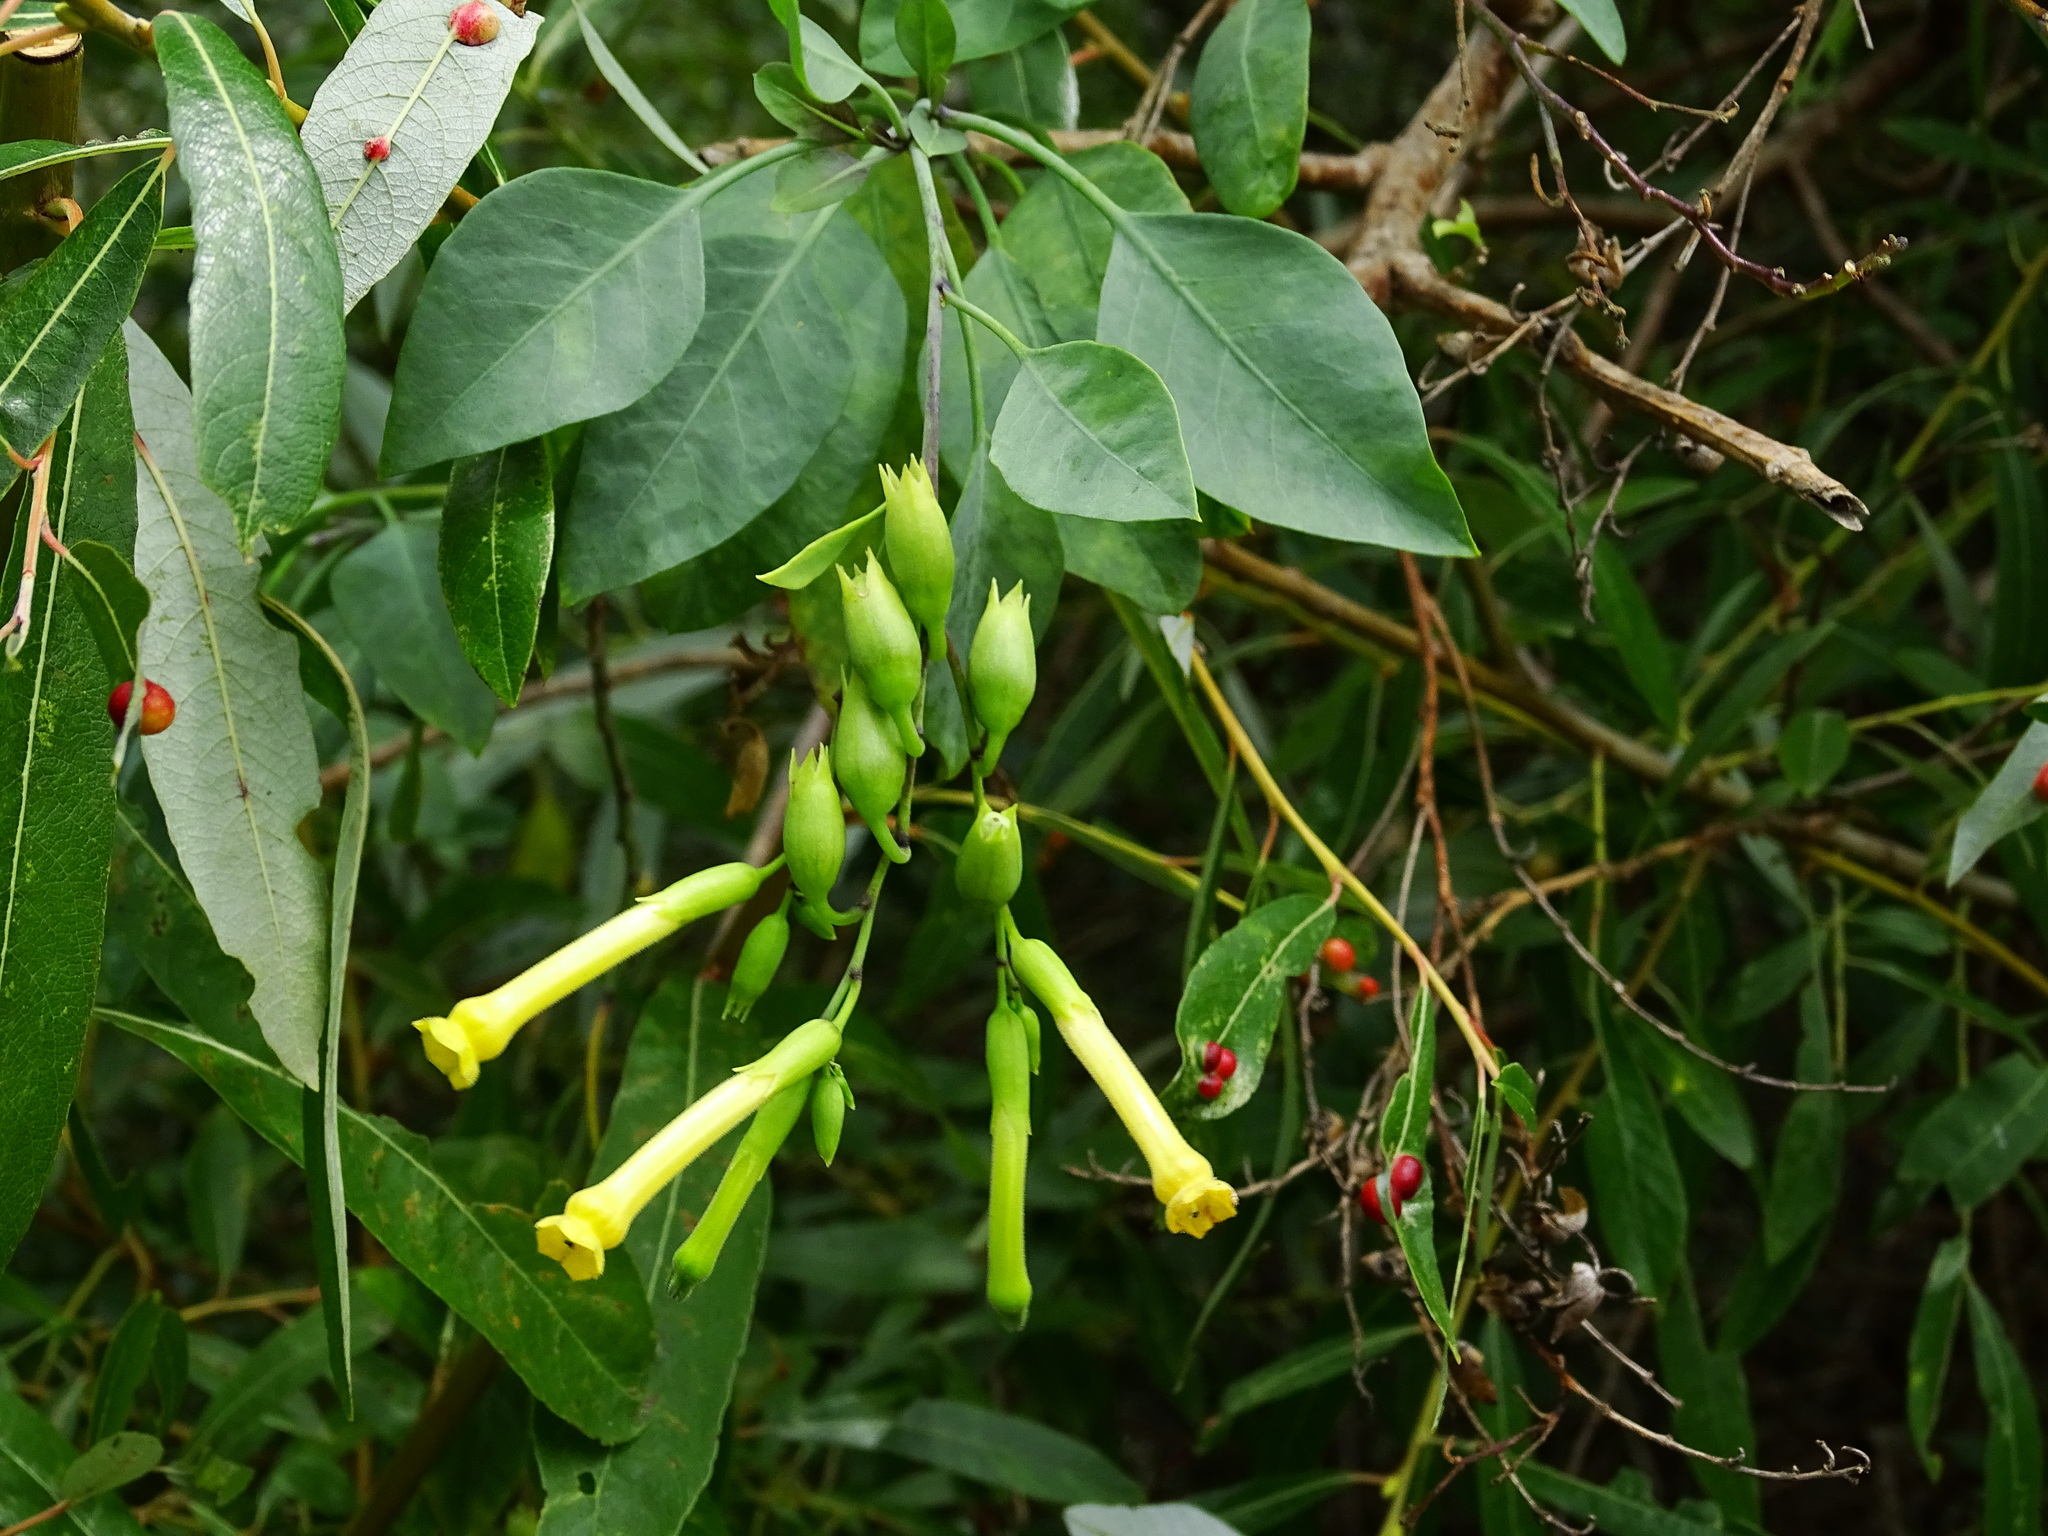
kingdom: Plantae
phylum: Tracheophyta
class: Magnoliopsida
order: Solanales
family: Solanaceae
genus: Nicotiana
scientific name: Nicotiana glauca
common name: Tree tobacco
